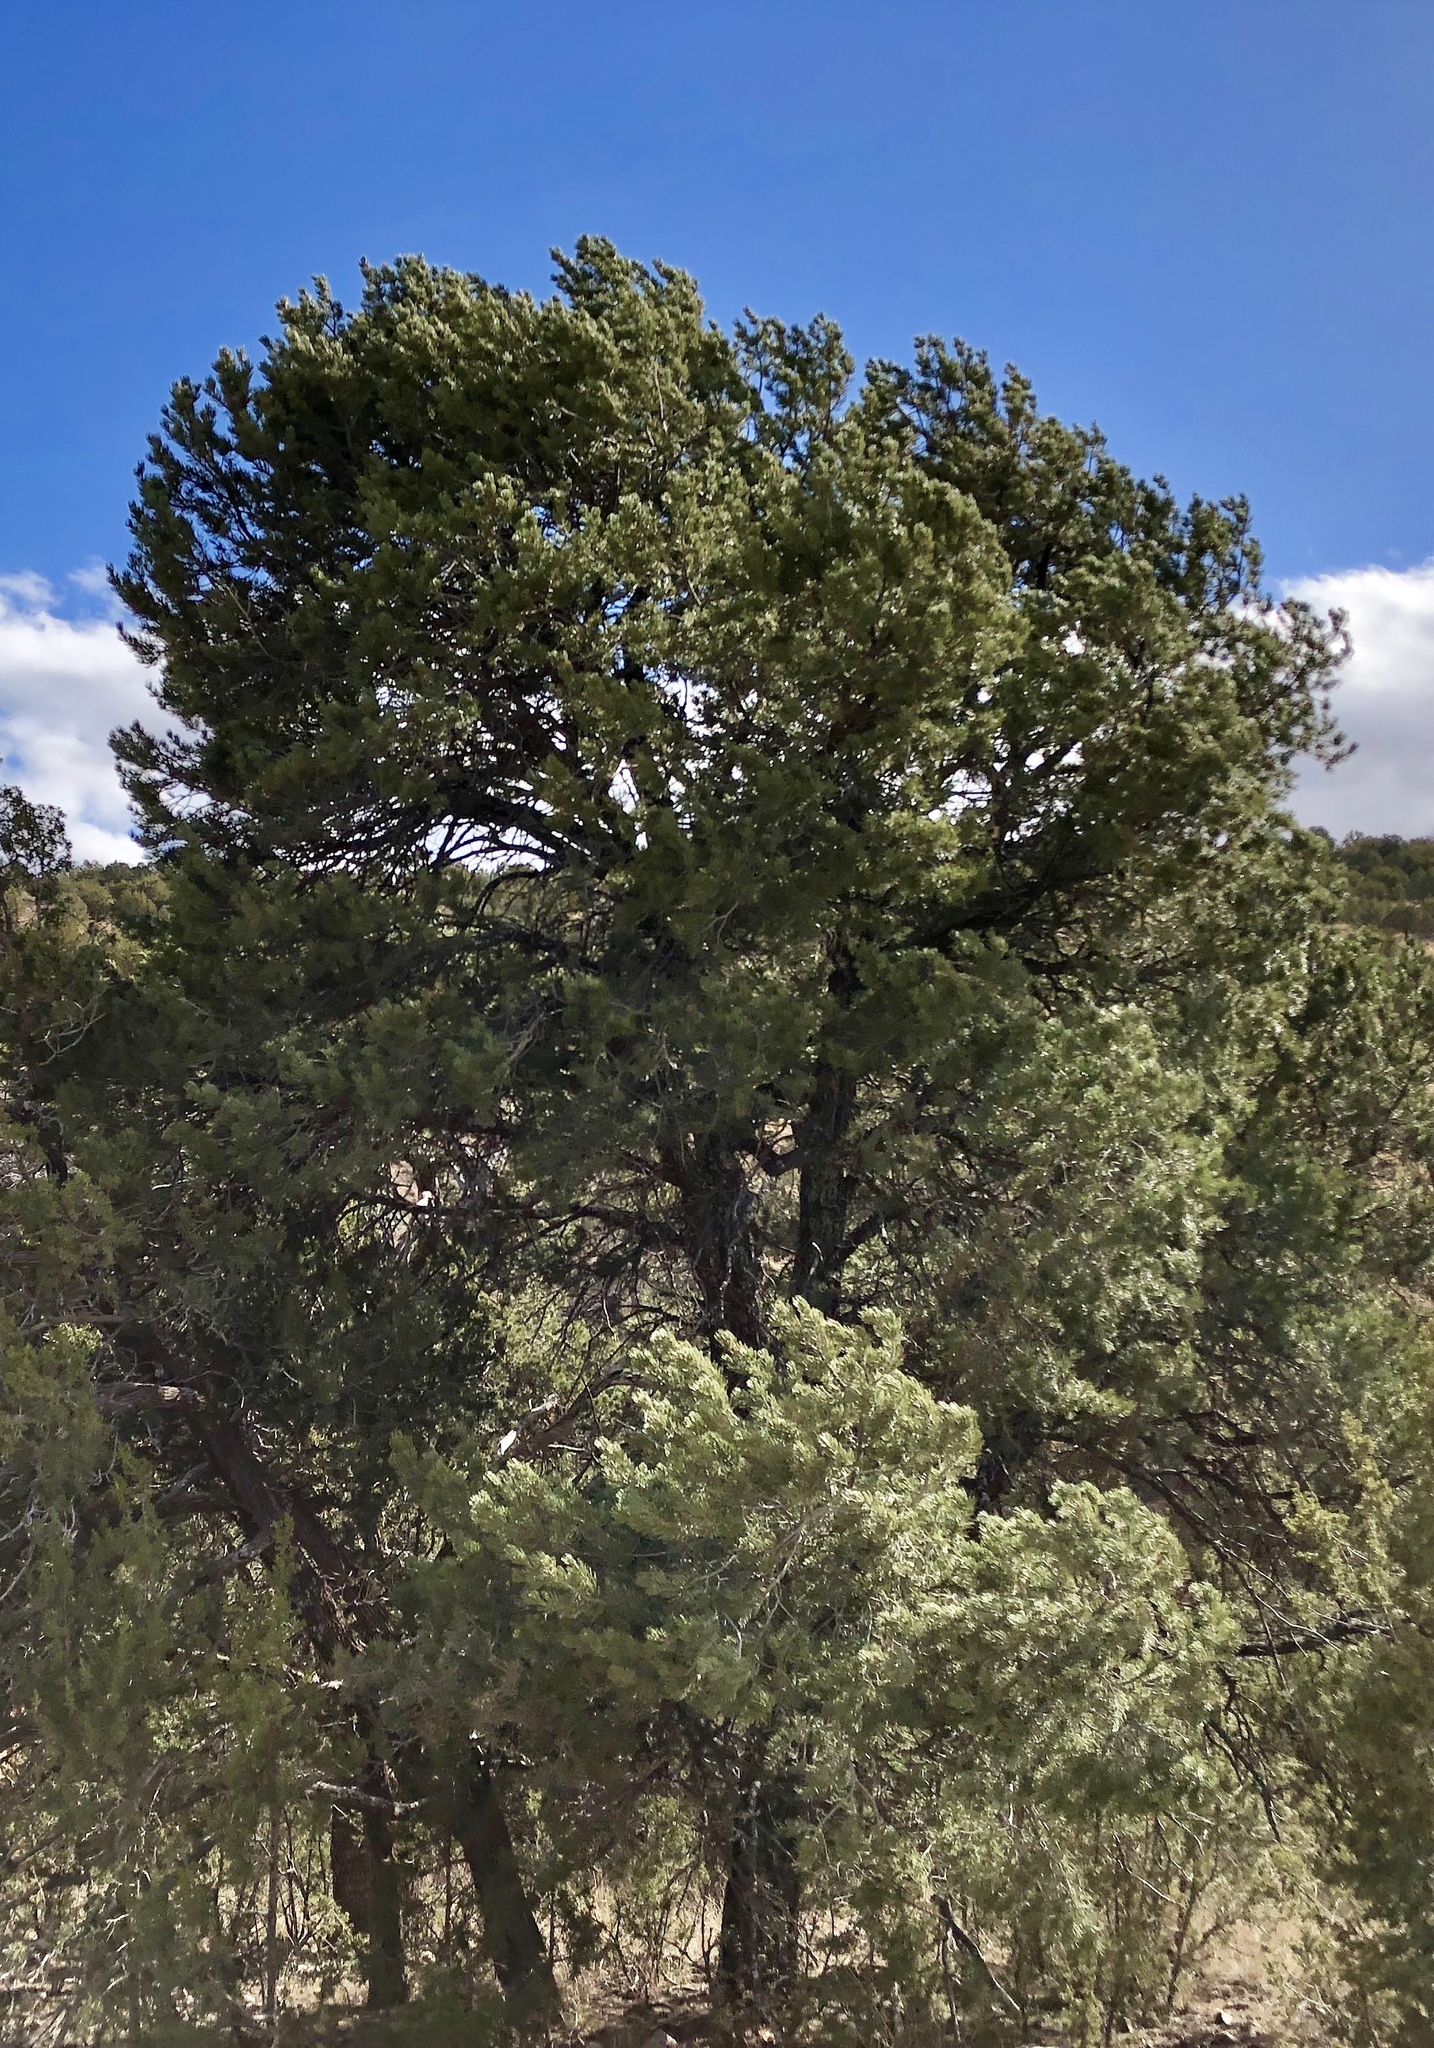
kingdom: Plantae
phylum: Tracheophyta
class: Pinopsida
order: Pinales
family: Pinaceae
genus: Pinus
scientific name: Pinus edulis
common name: Colorado pinyon
